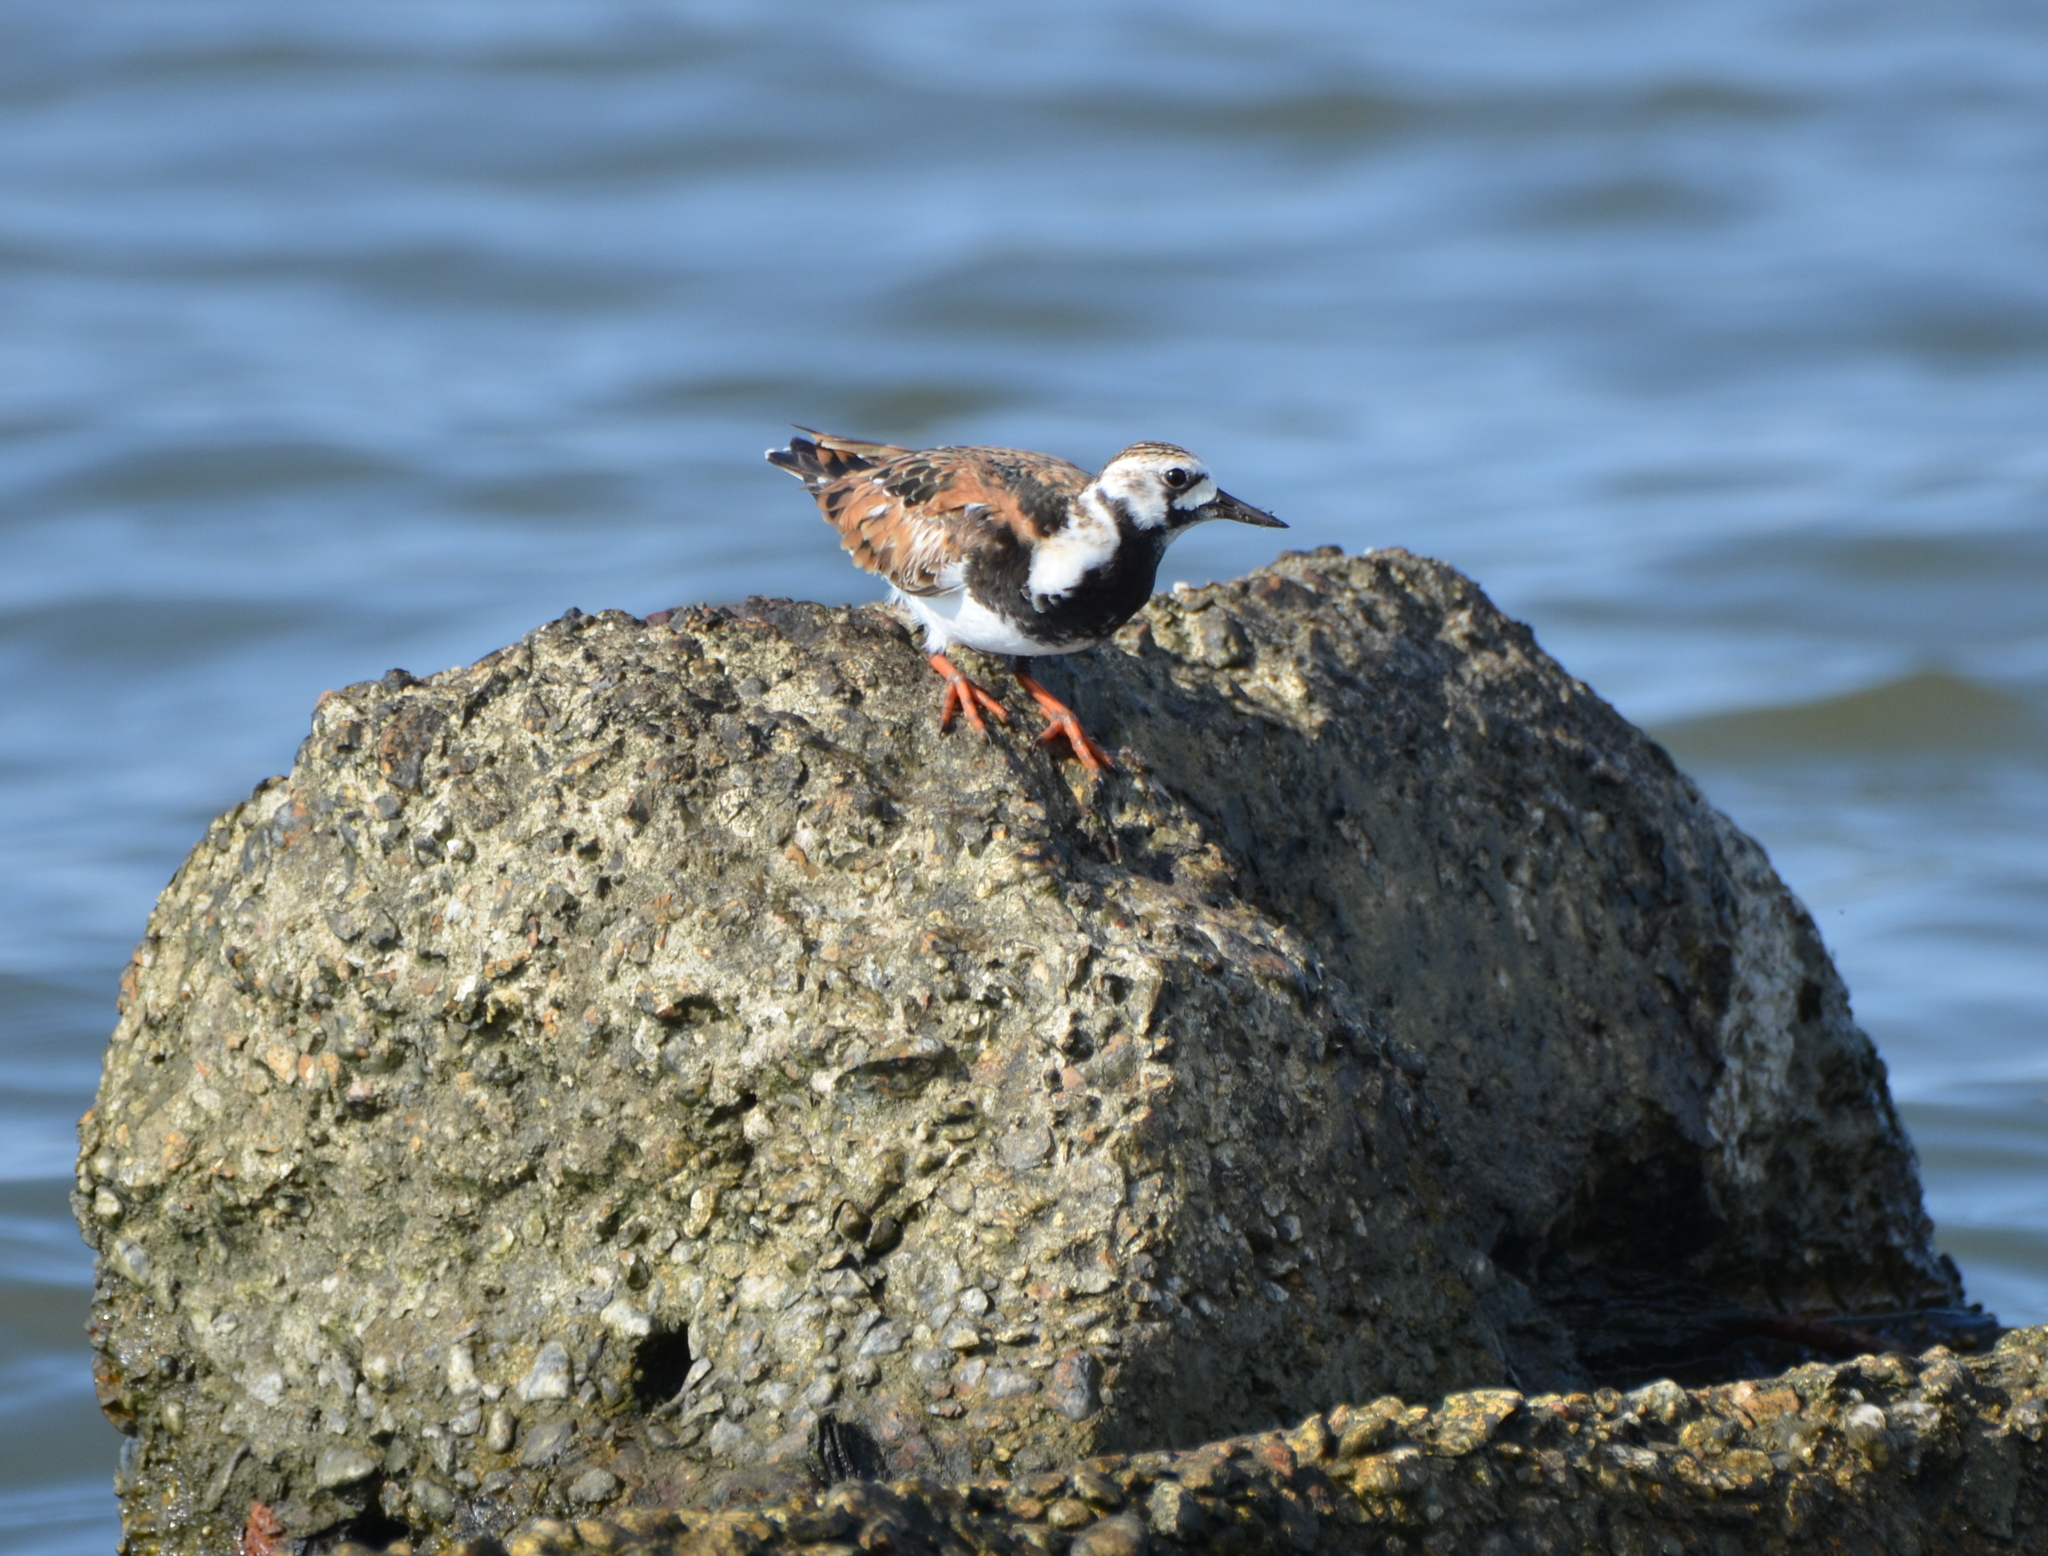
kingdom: Animalia
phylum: Chordata
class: Aves
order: Charadriiformes
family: Scolopacidae
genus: Arenaria
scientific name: Arenaria interpres
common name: Ruddy turnstone
